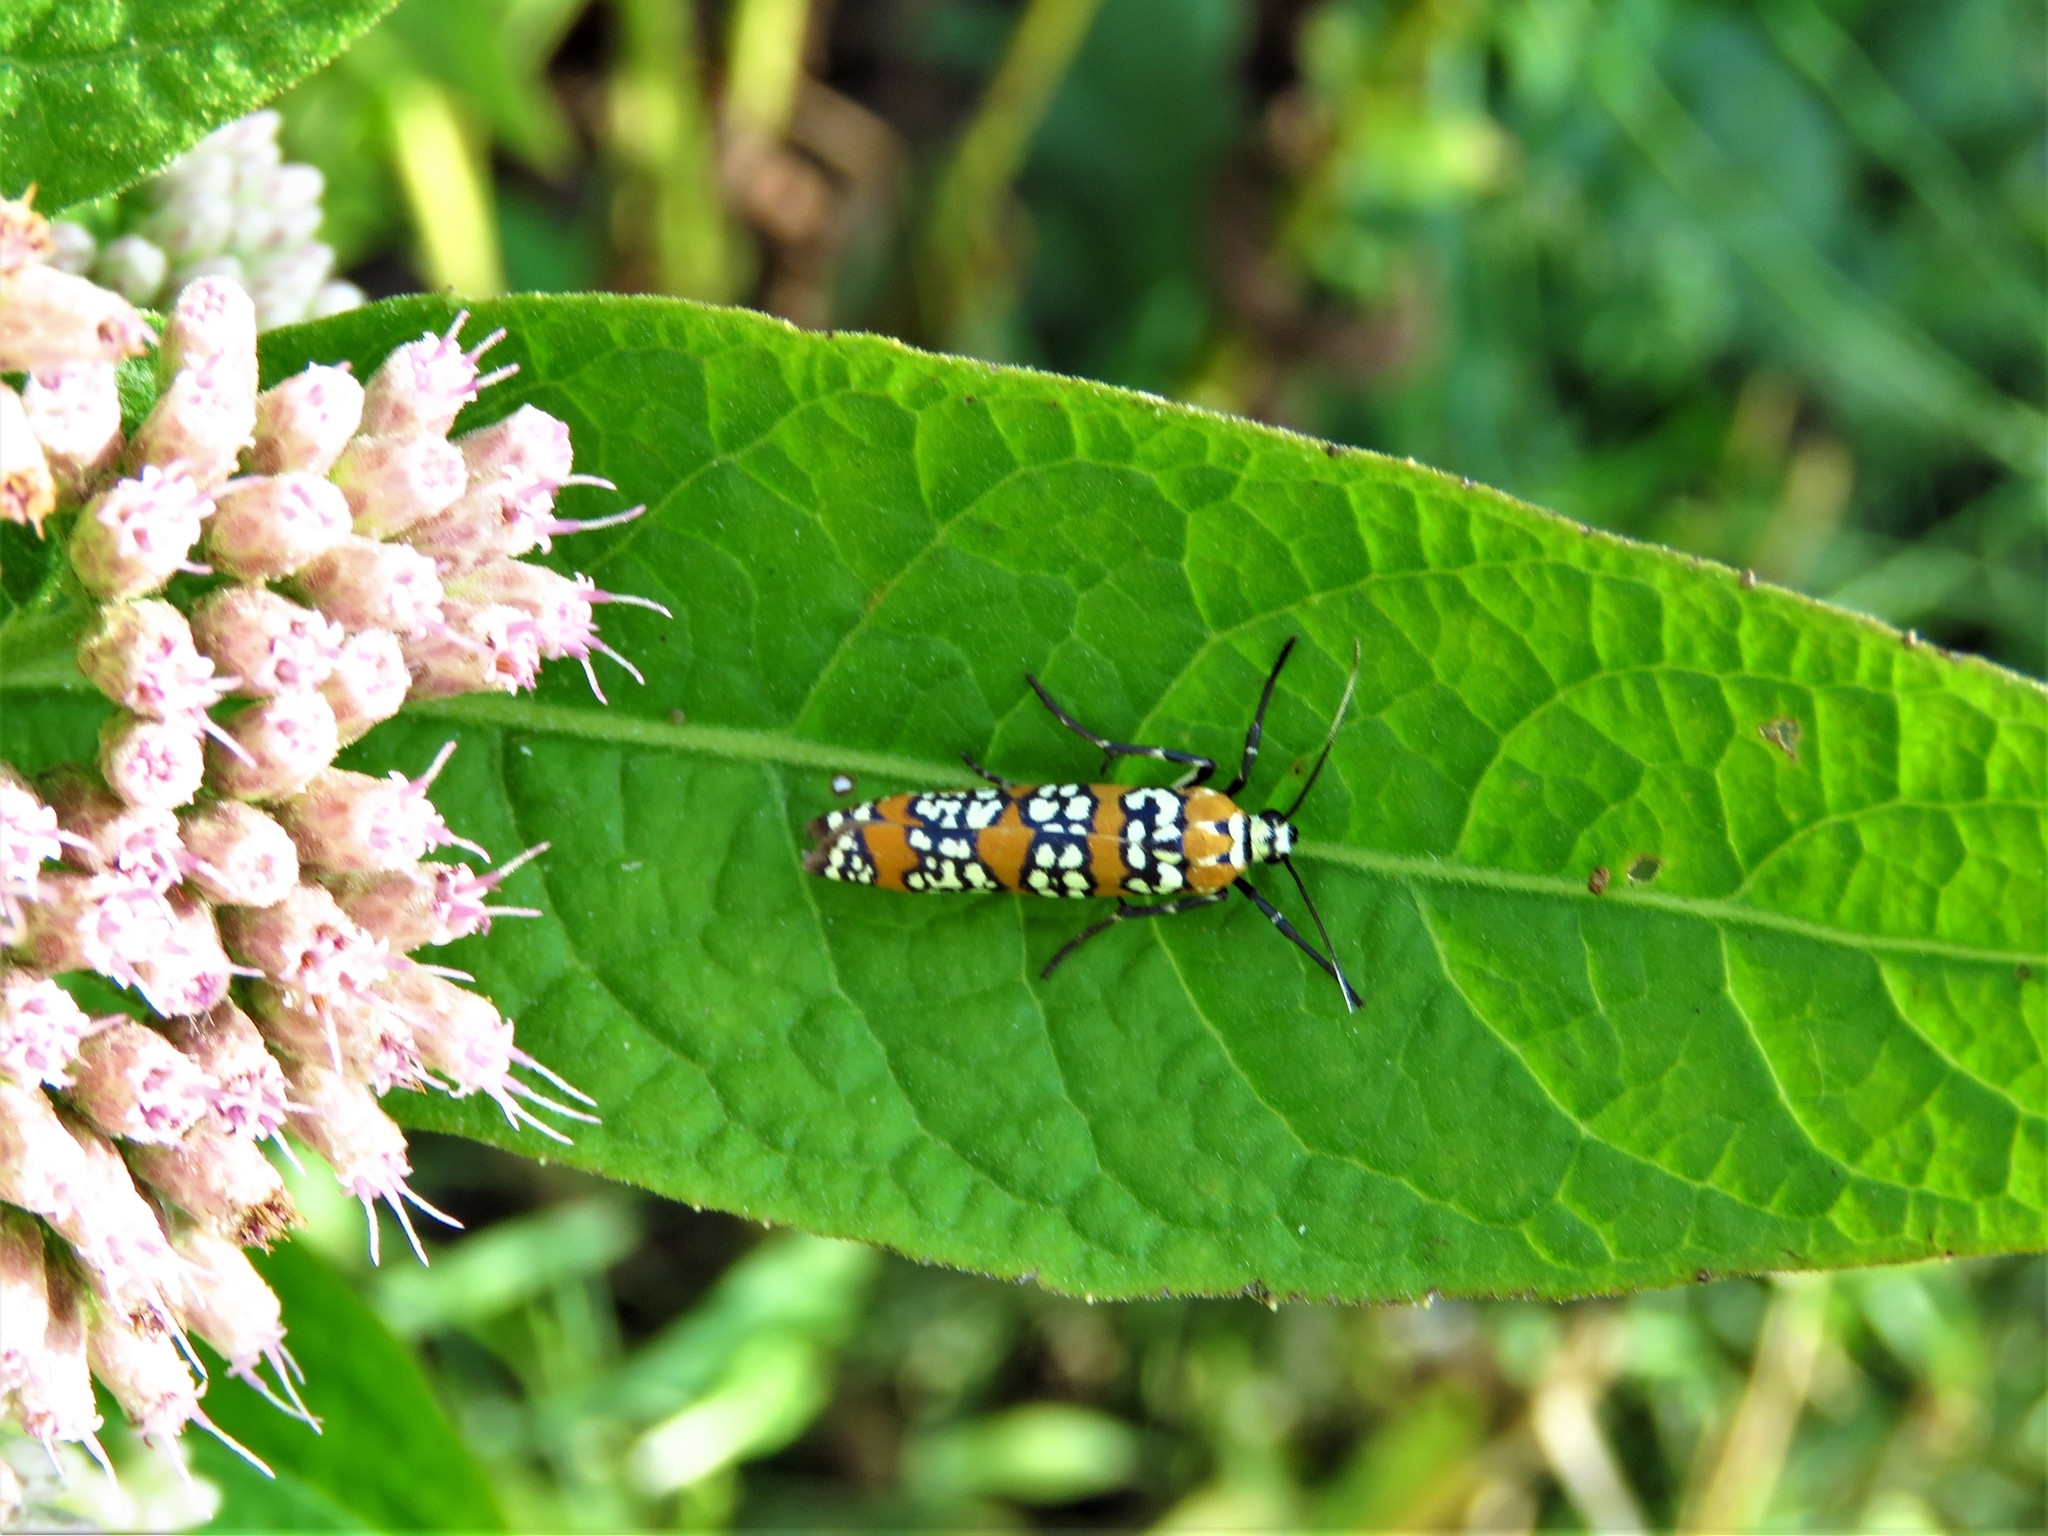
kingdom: Animalia
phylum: Arthropoda
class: Insecta
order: Lepidoptera
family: Attevidae
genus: Atteva
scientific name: Atteva punctella
